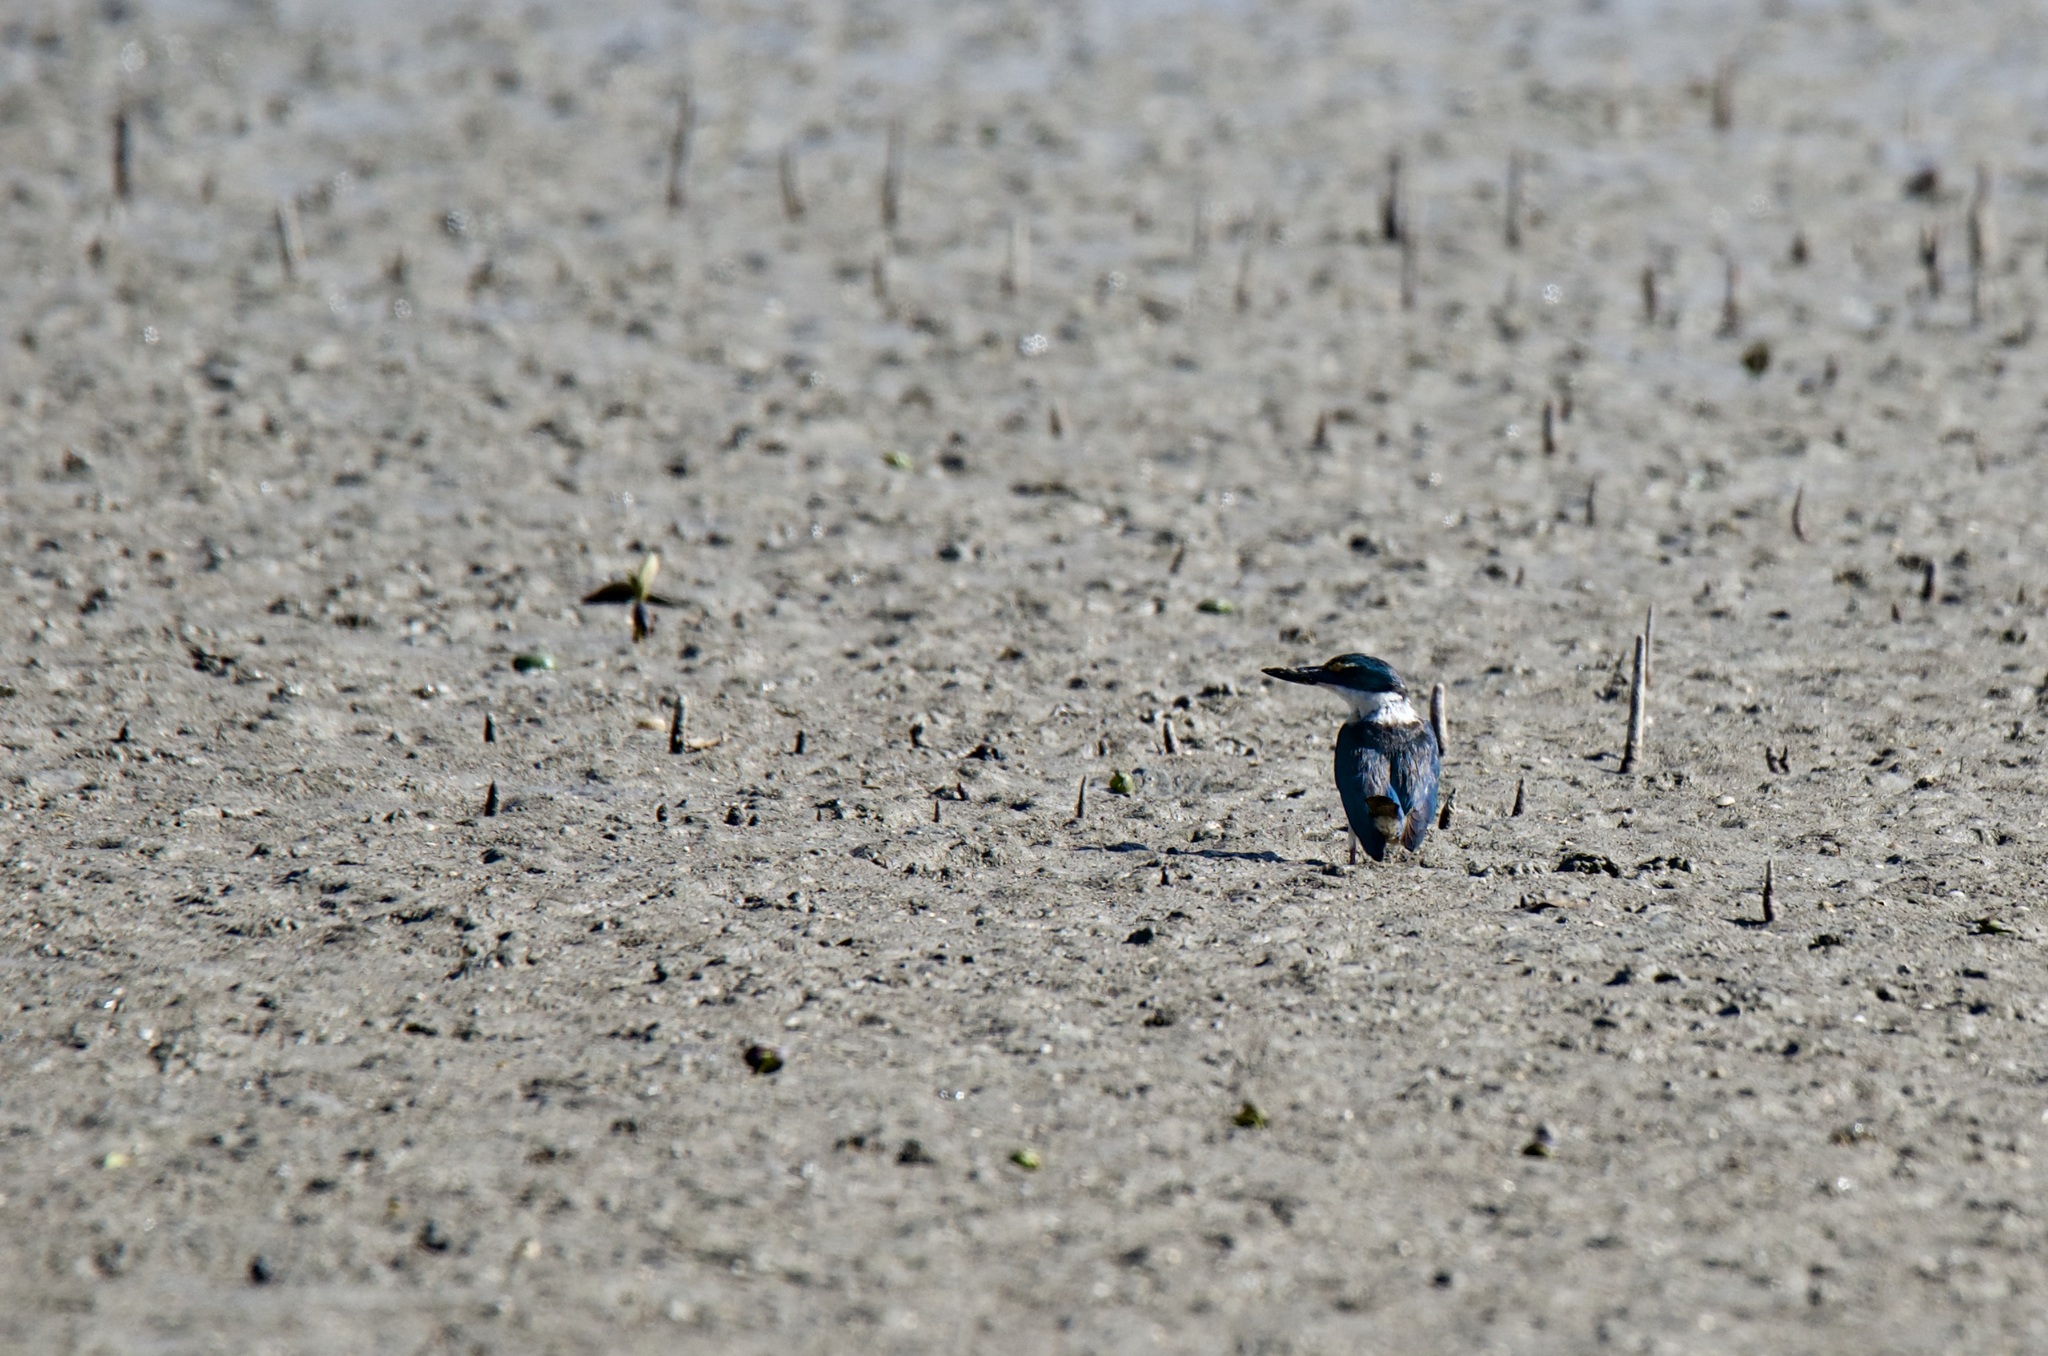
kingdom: Animalia
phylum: Chordata
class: Aves
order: Coraciiformes
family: Alcedinidae
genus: Todiramphus
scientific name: Todiramphus sanctus
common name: Sacred kingfisher
